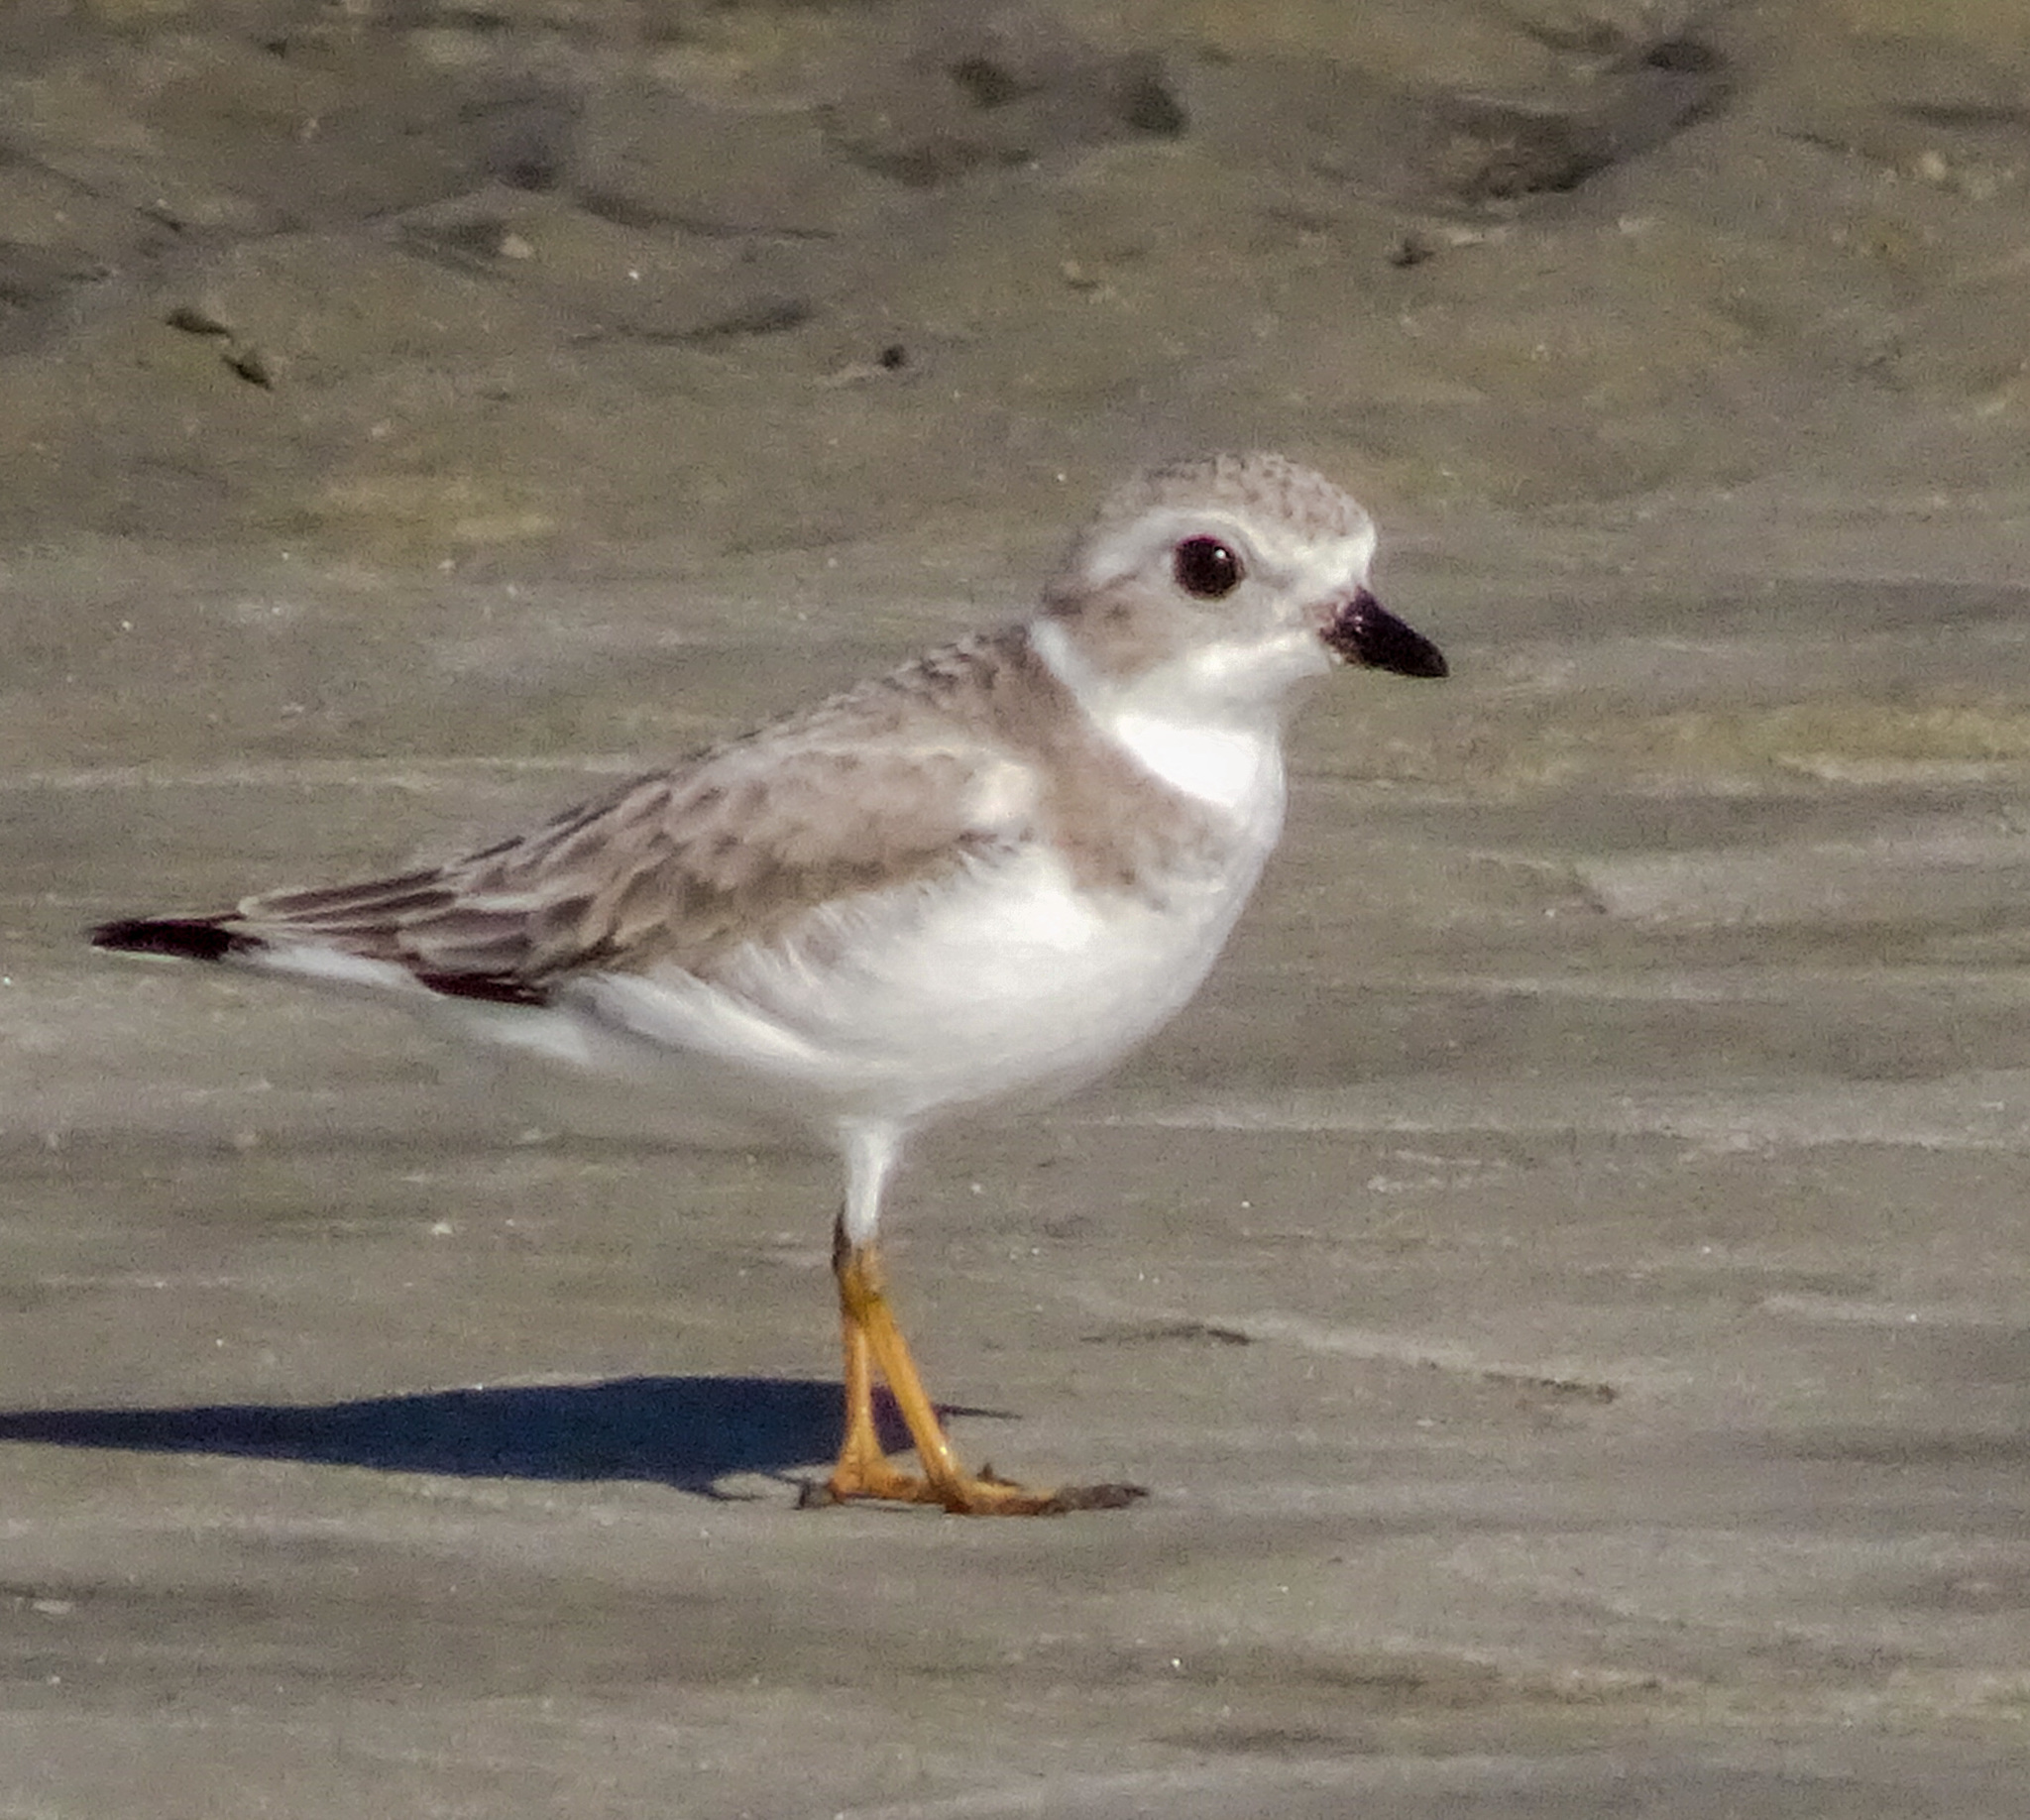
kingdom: Animalia
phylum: Chordata
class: Aves
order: Charadriiformes
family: Charadriidae
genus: Charadrius
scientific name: Charadrius melodus
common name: Piping plover
